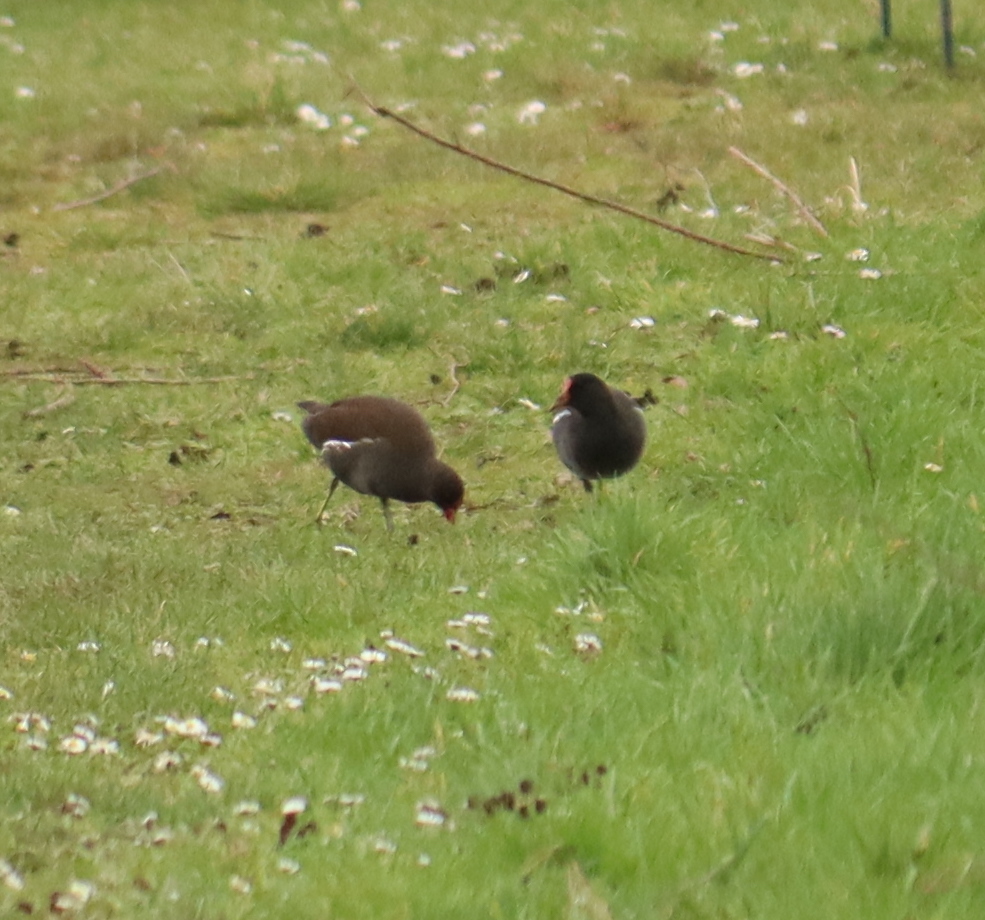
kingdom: Animalia
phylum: Chordata
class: Aves
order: Gruiformes
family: Rallidae
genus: Gallinula
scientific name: Gallinula chloropus
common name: Common moorhen
